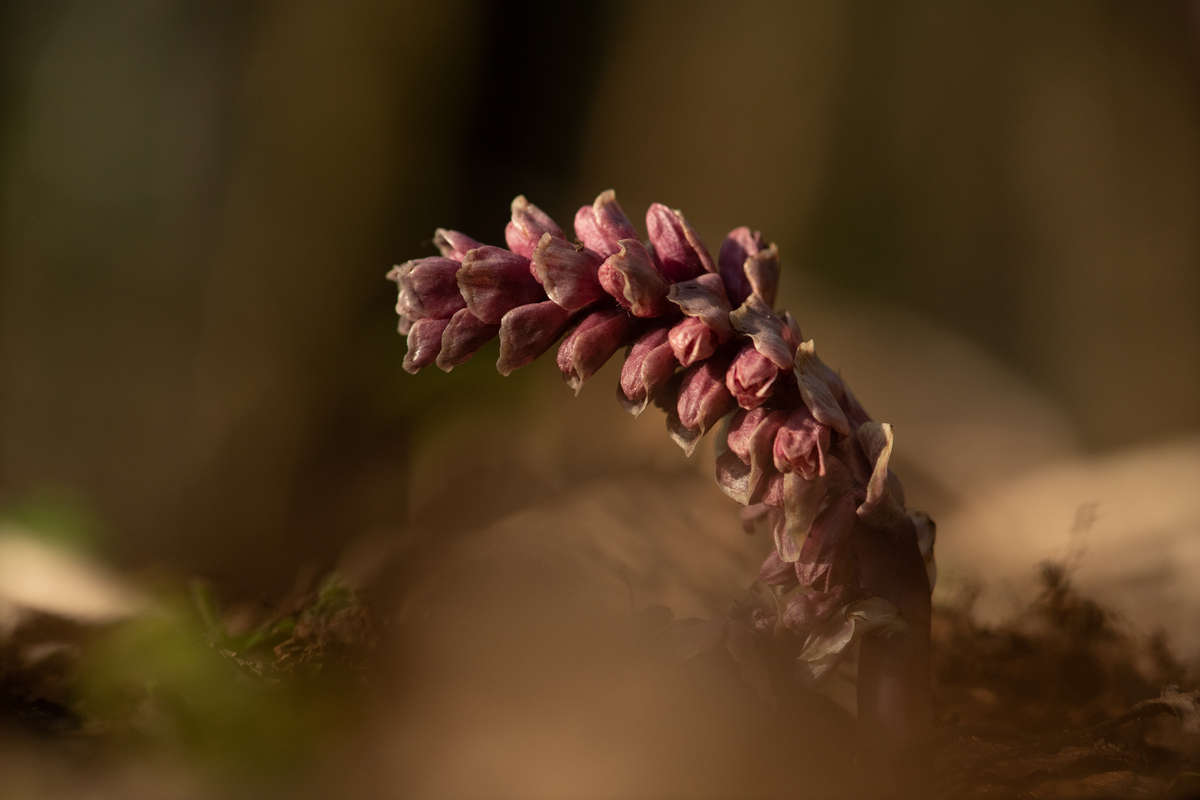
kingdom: Plantae
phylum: Tracheophyta
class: Magnoliopsida
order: Lamiales
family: Orobanchaceae
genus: Lathraea
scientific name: Lathraea squamaria
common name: Toothwort
